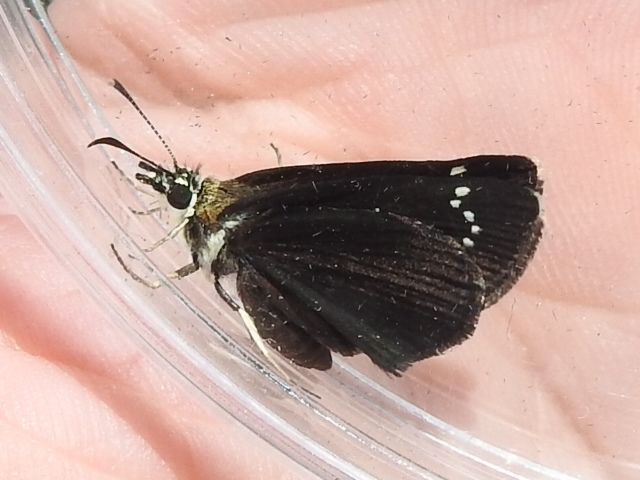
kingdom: Animalia
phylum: Arthropoda
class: Insecta
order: Lepidoptera
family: Hesperiidae
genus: Pholisora
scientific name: Pholisora catullus
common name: Common sootywing
